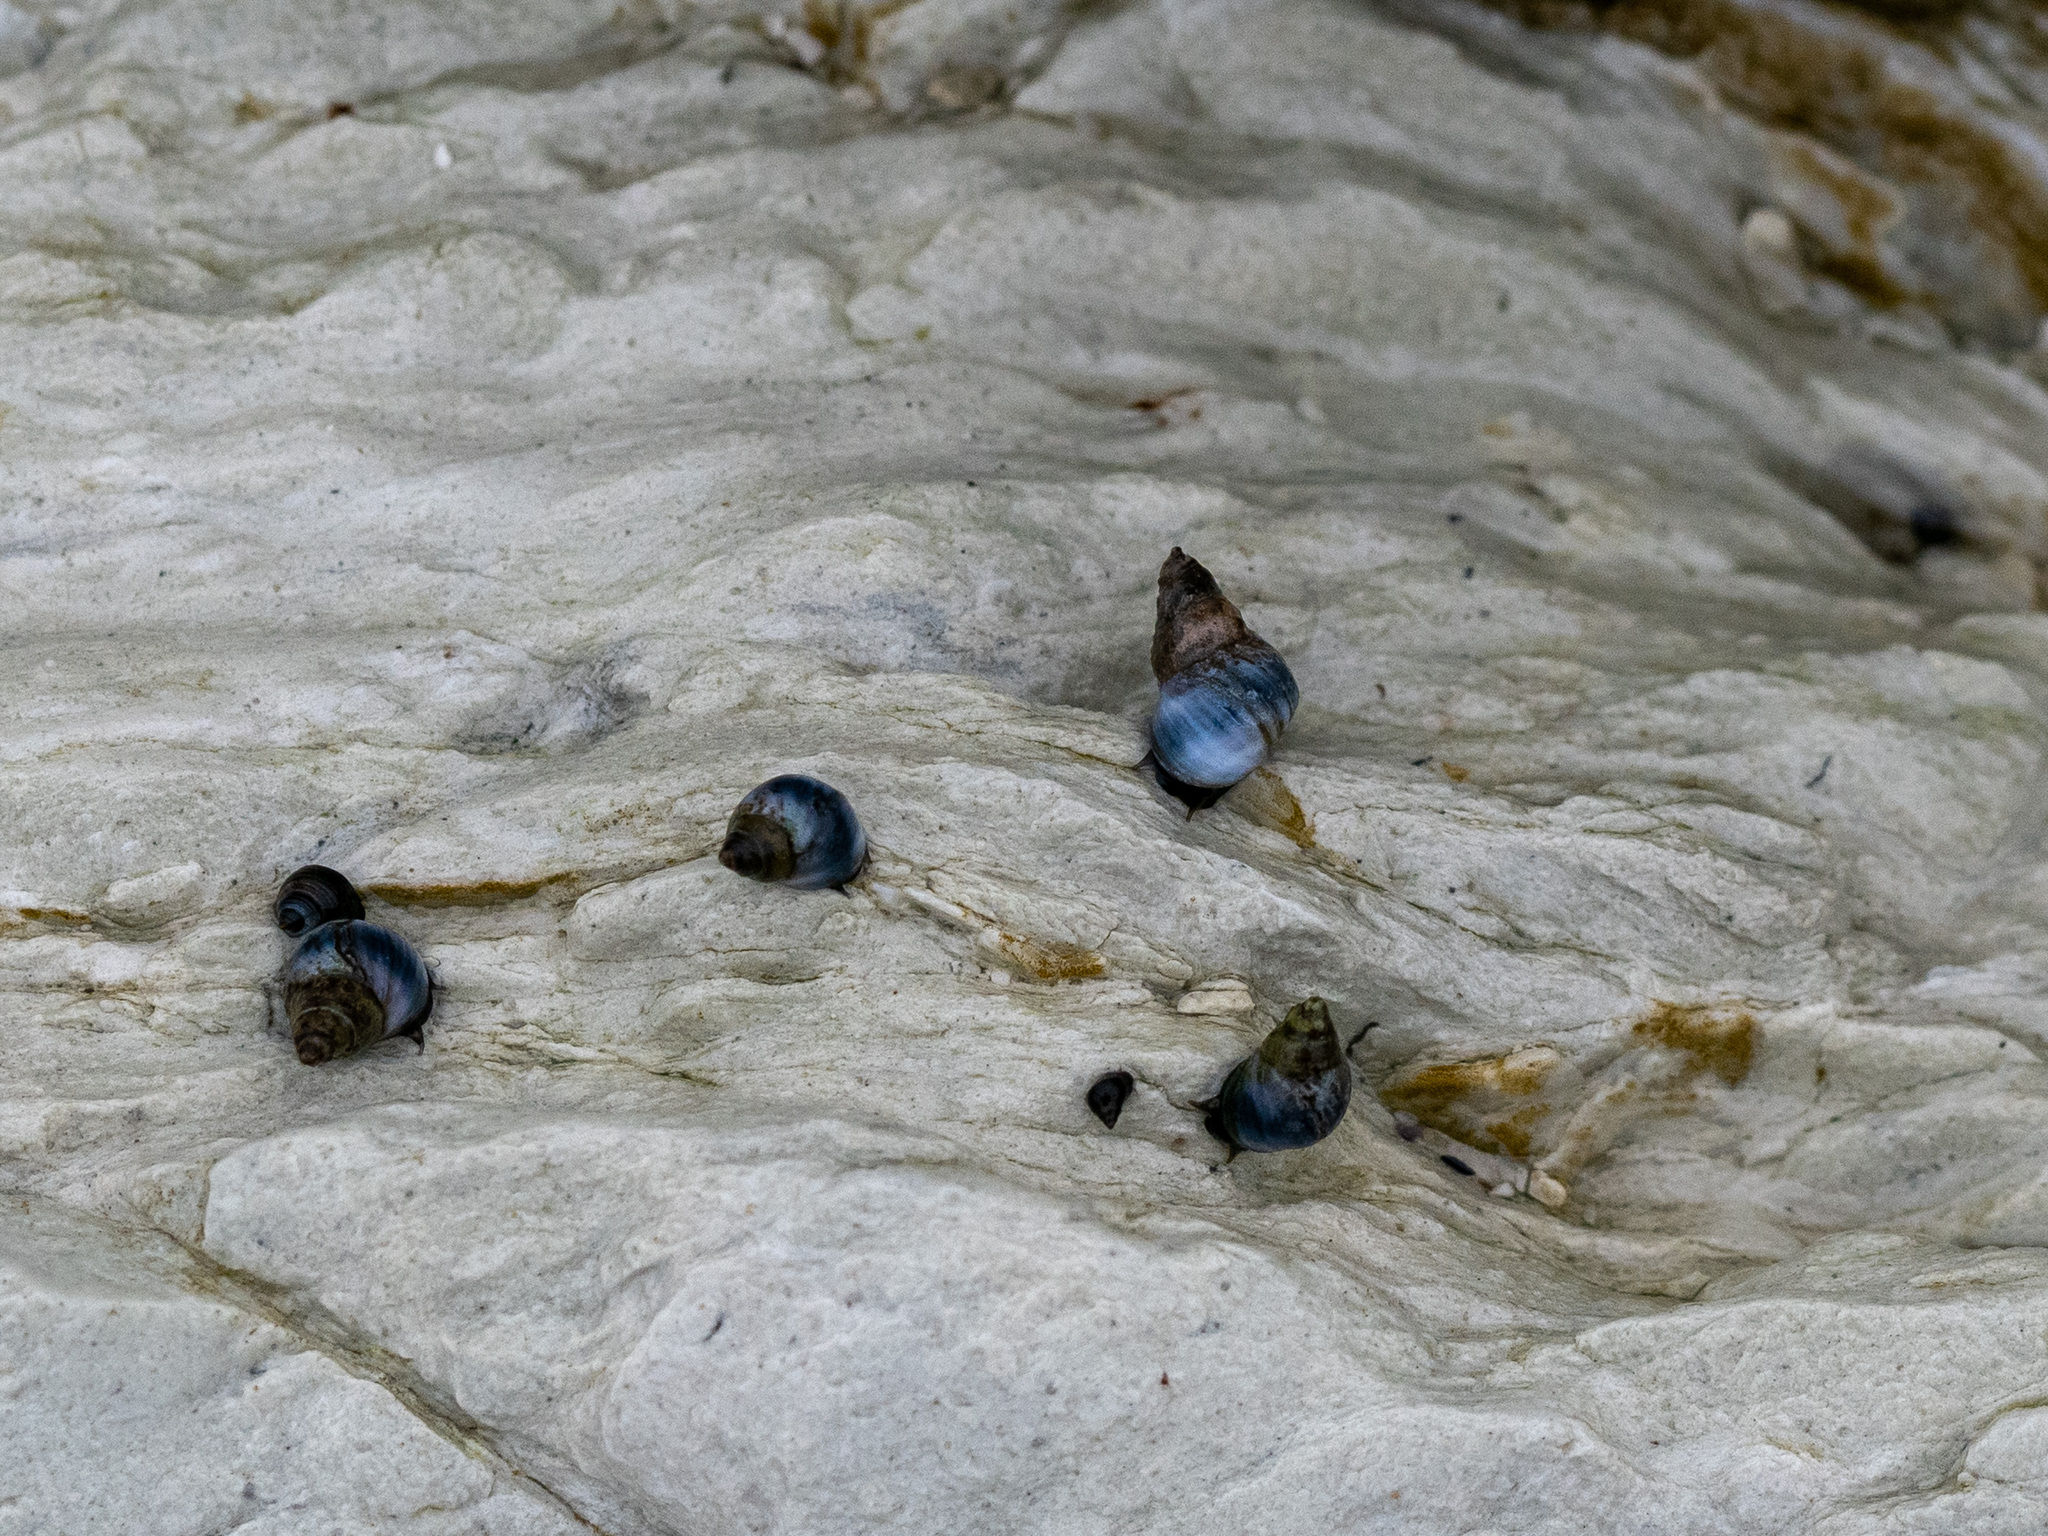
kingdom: Animalia
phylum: Mollusca
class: Gastropoda
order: Littorinimorpha
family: Littorinidae
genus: Austrolittorina
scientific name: Austrolittorina antipodum
